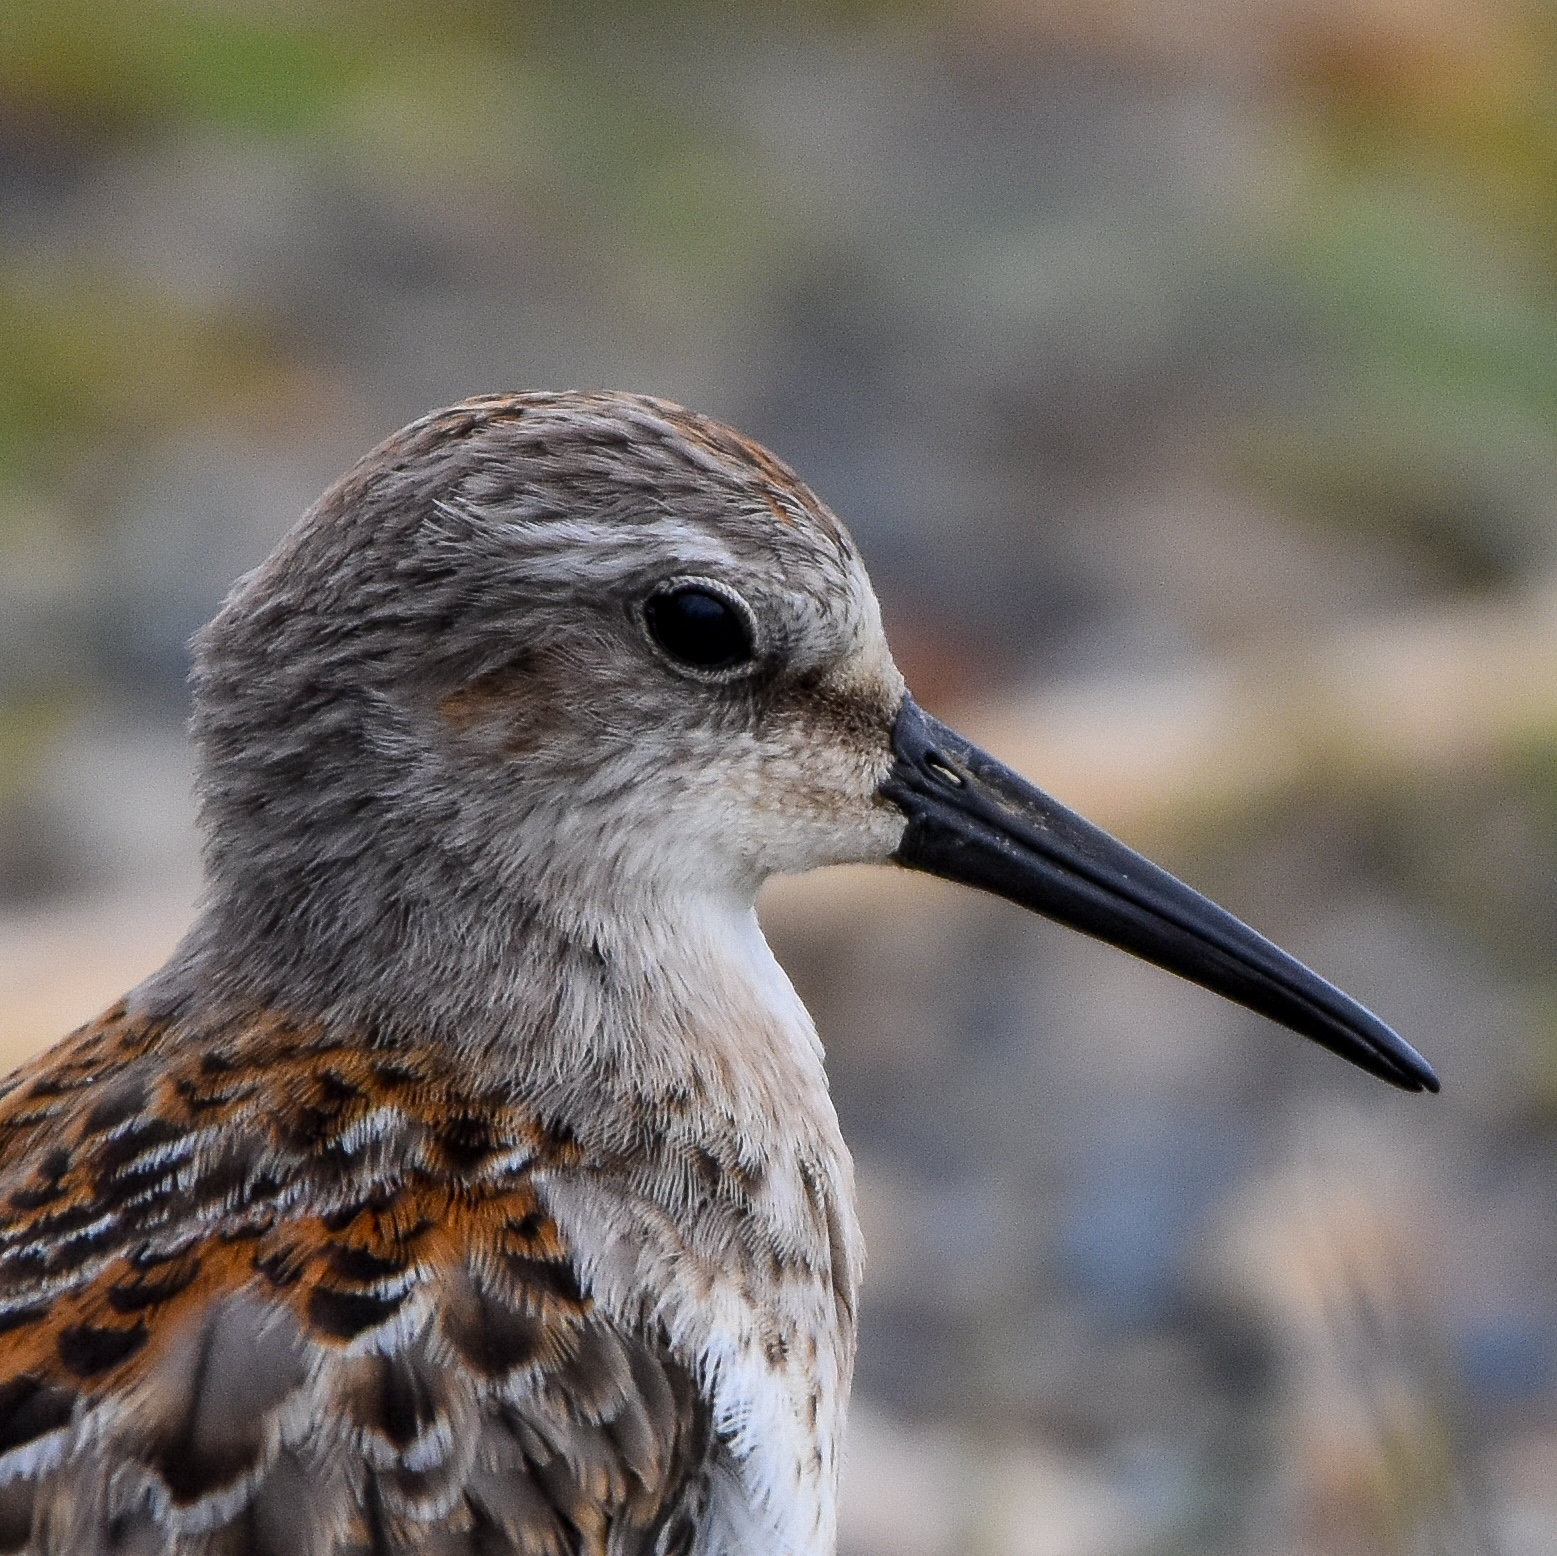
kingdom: Animalia
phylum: Chordata
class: Aves
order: Charadriiformes
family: Scolopacidae
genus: Calidris
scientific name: Calidris mauri
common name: Western sandpiper
